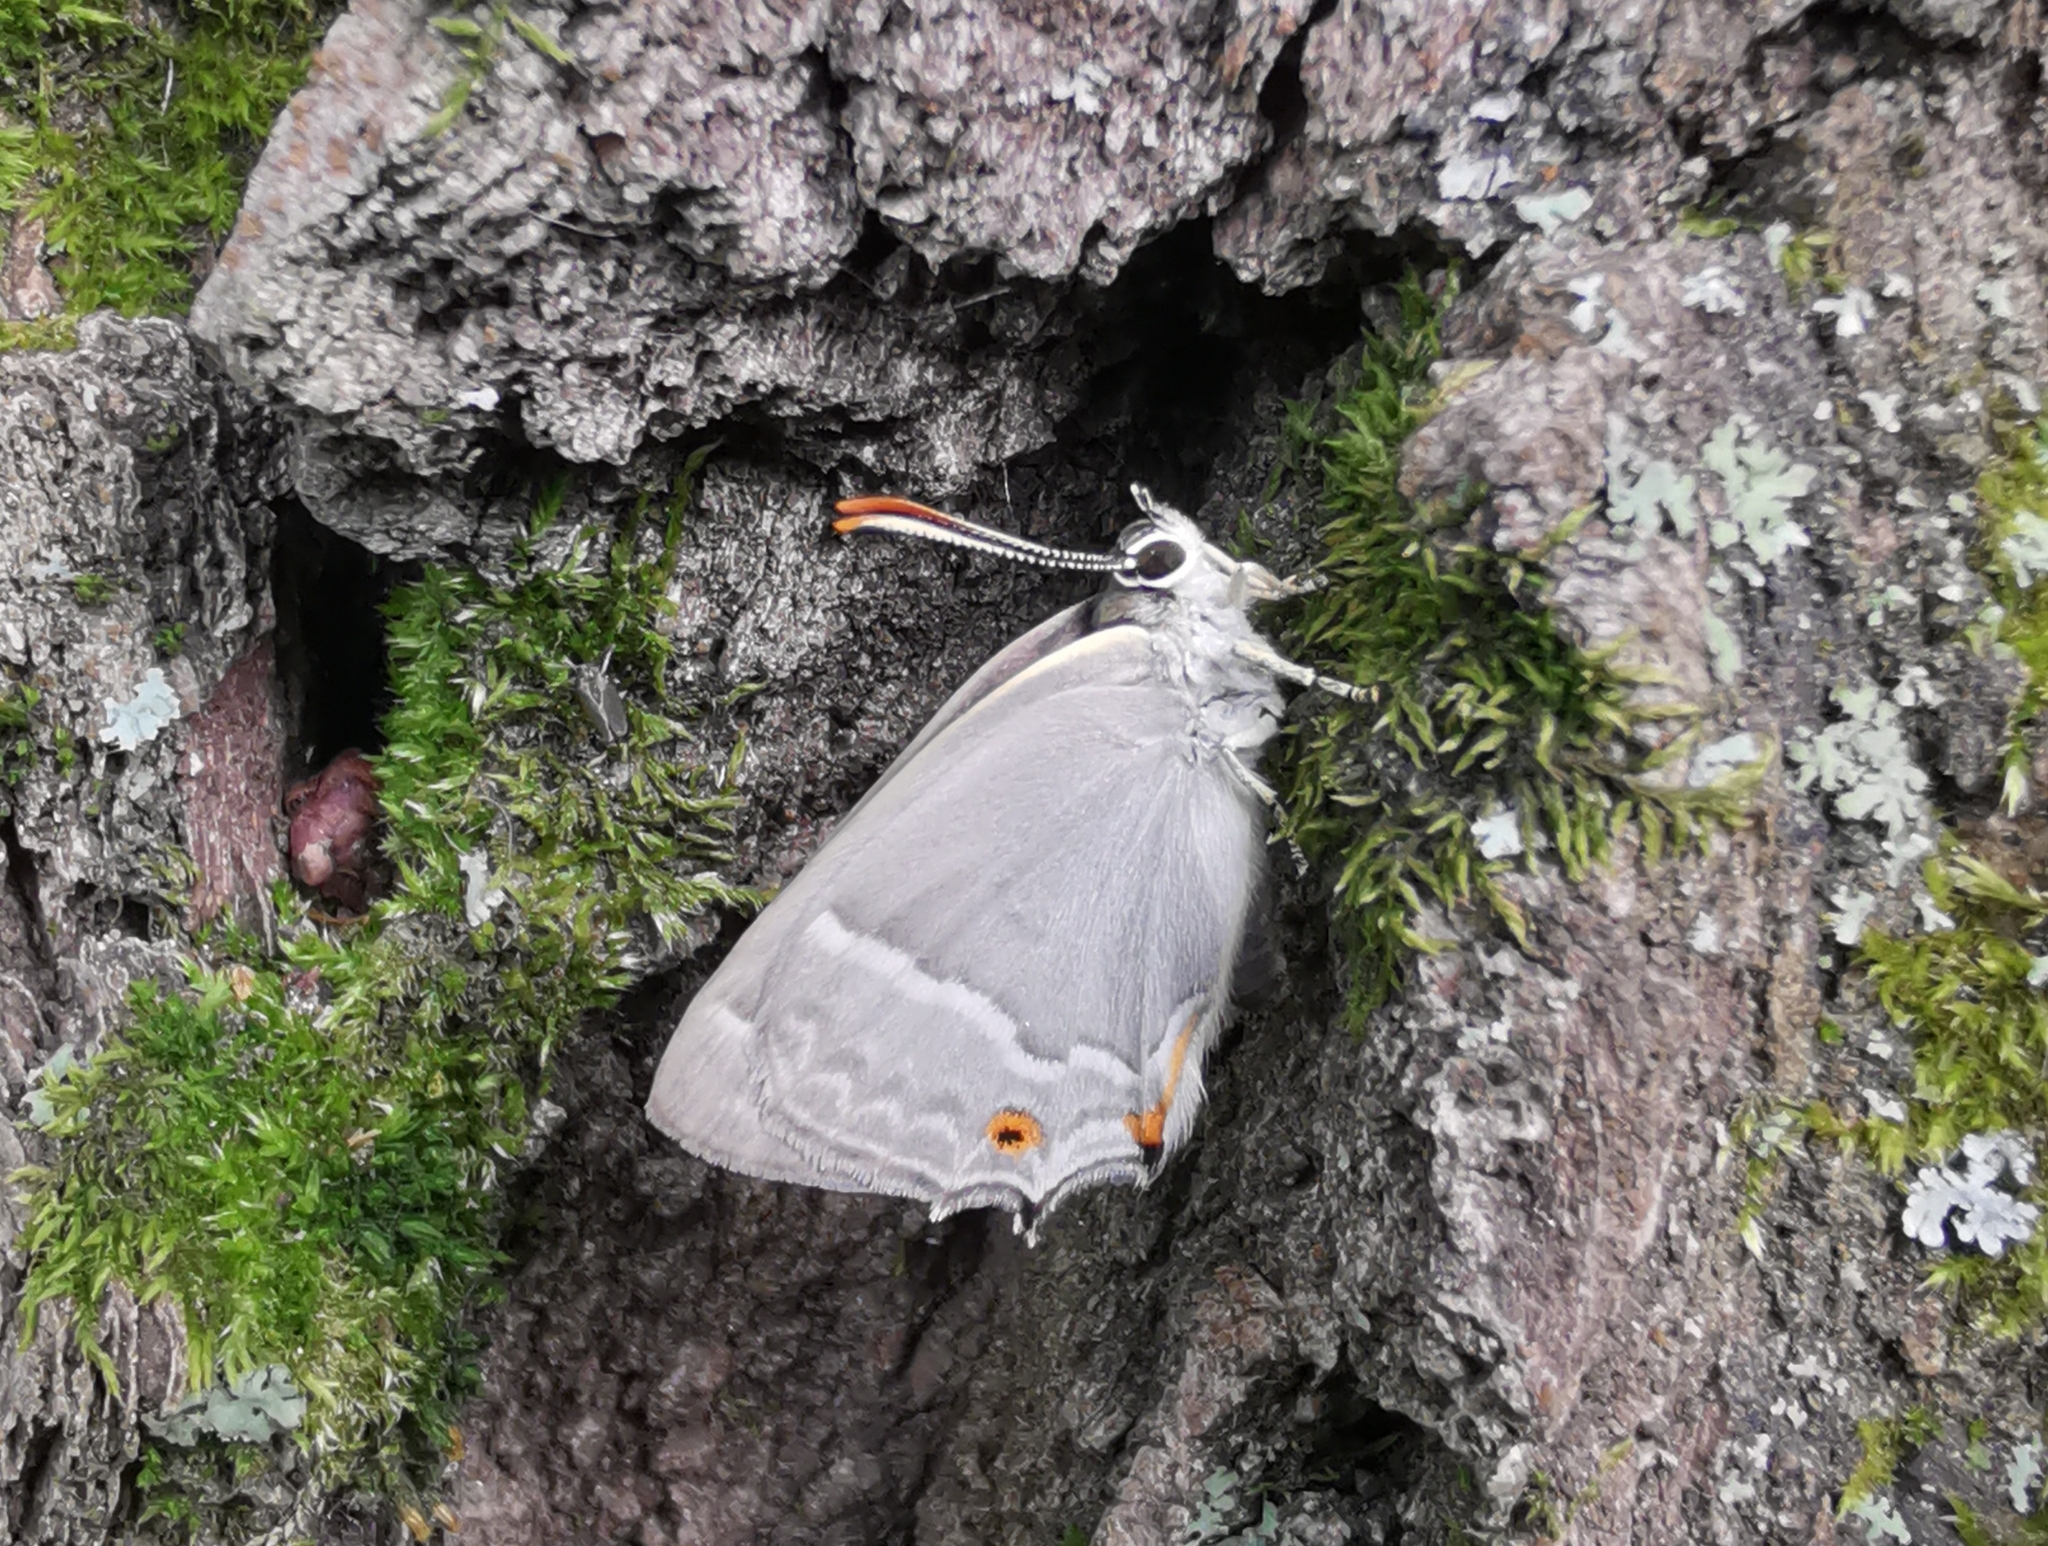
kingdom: Animalia
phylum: Arthropoda
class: Insecta
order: Lepidoptera
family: Lycaenidae
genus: Quercusia
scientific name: Quercusia quercus
